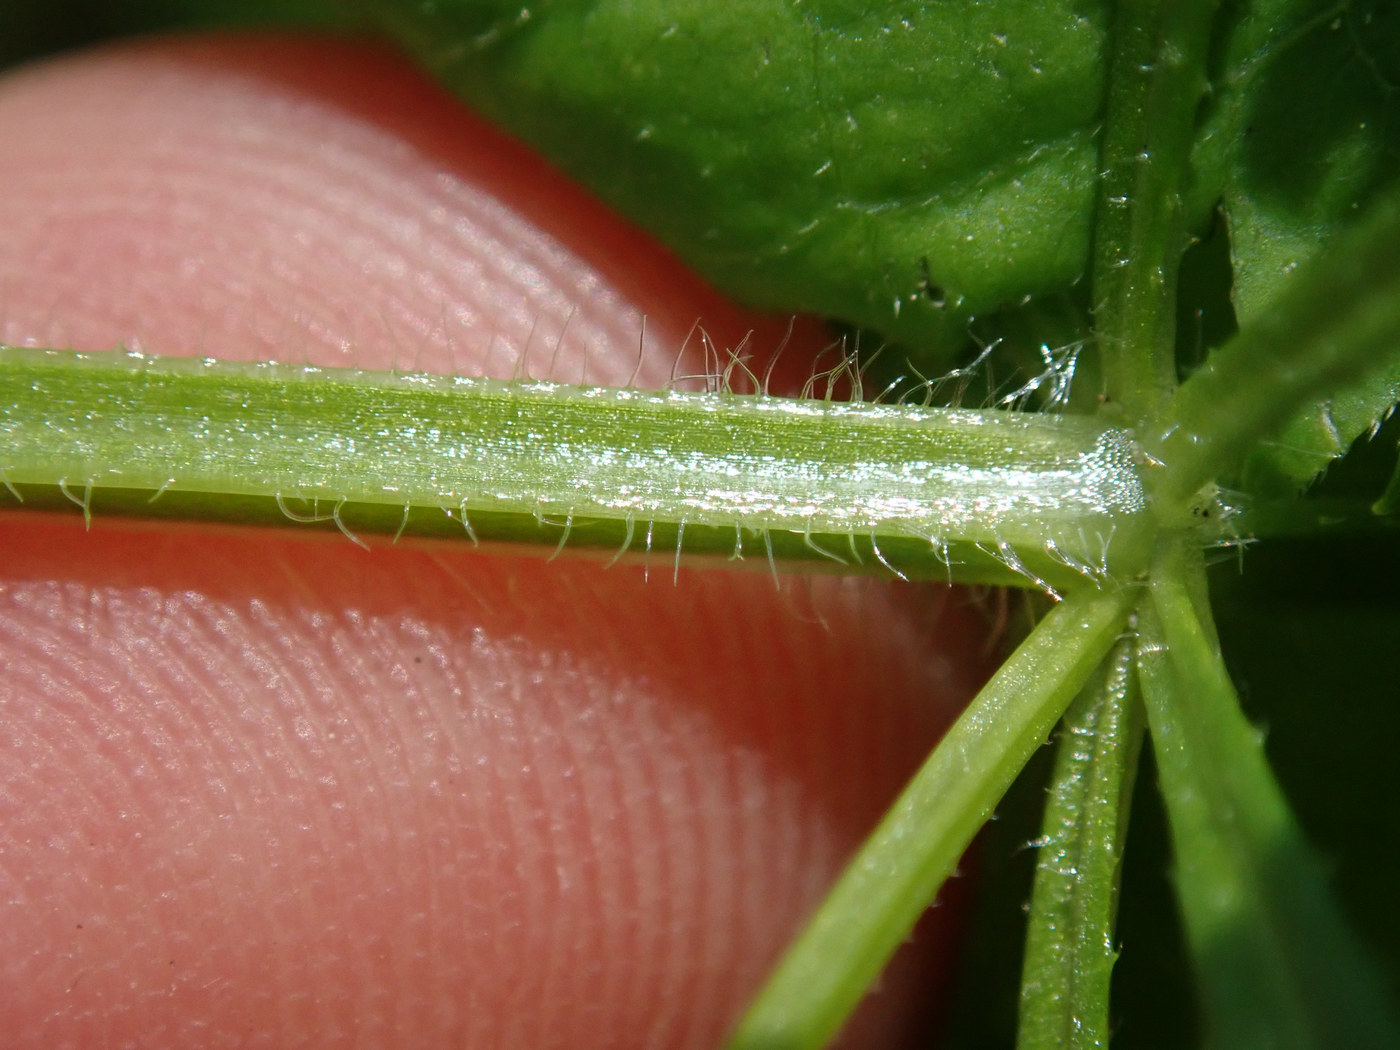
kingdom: Plantae
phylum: Tracheophyta
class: Magnoliopsida
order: Gentianales
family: Rubiaceae
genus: Galium
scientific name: Galium aparine
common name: Cleavers
